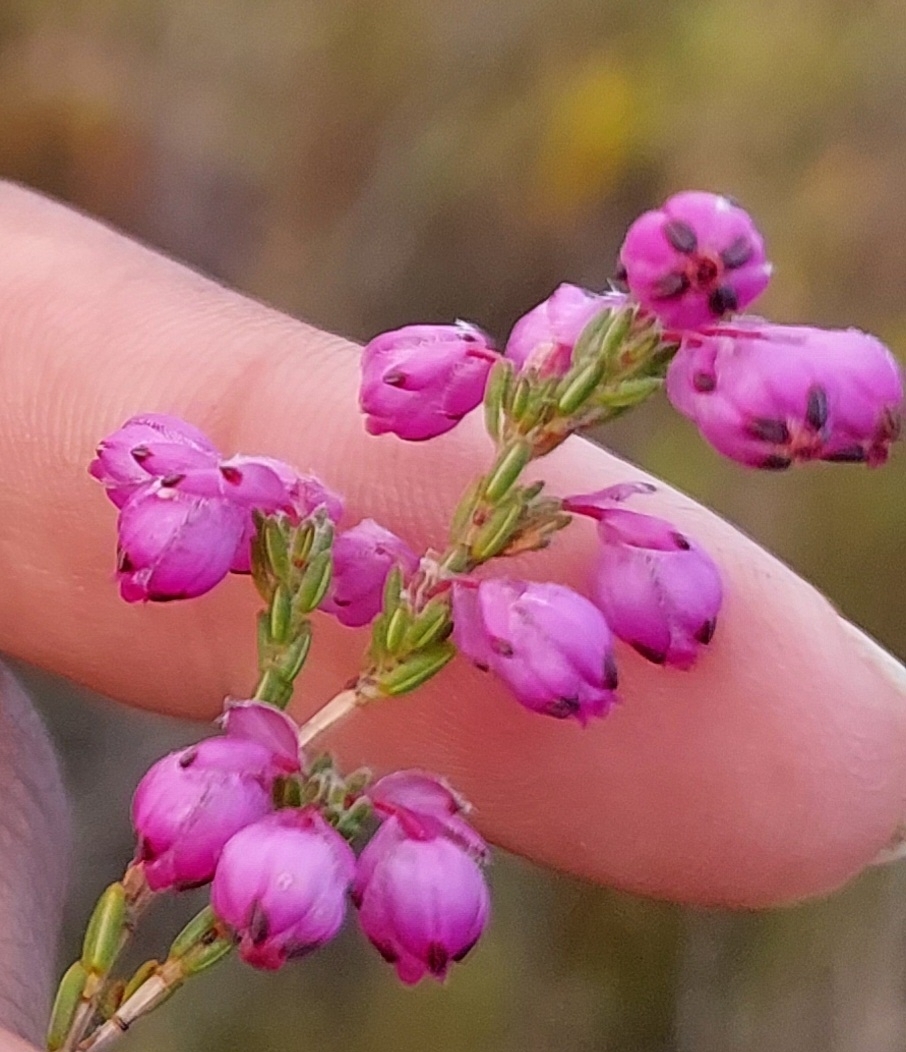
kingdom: Plantae
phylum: Tracheophyta
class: Magnoliopsida
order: Ericales
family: Ericaceae
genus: Erica
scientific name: Erica melanacme
